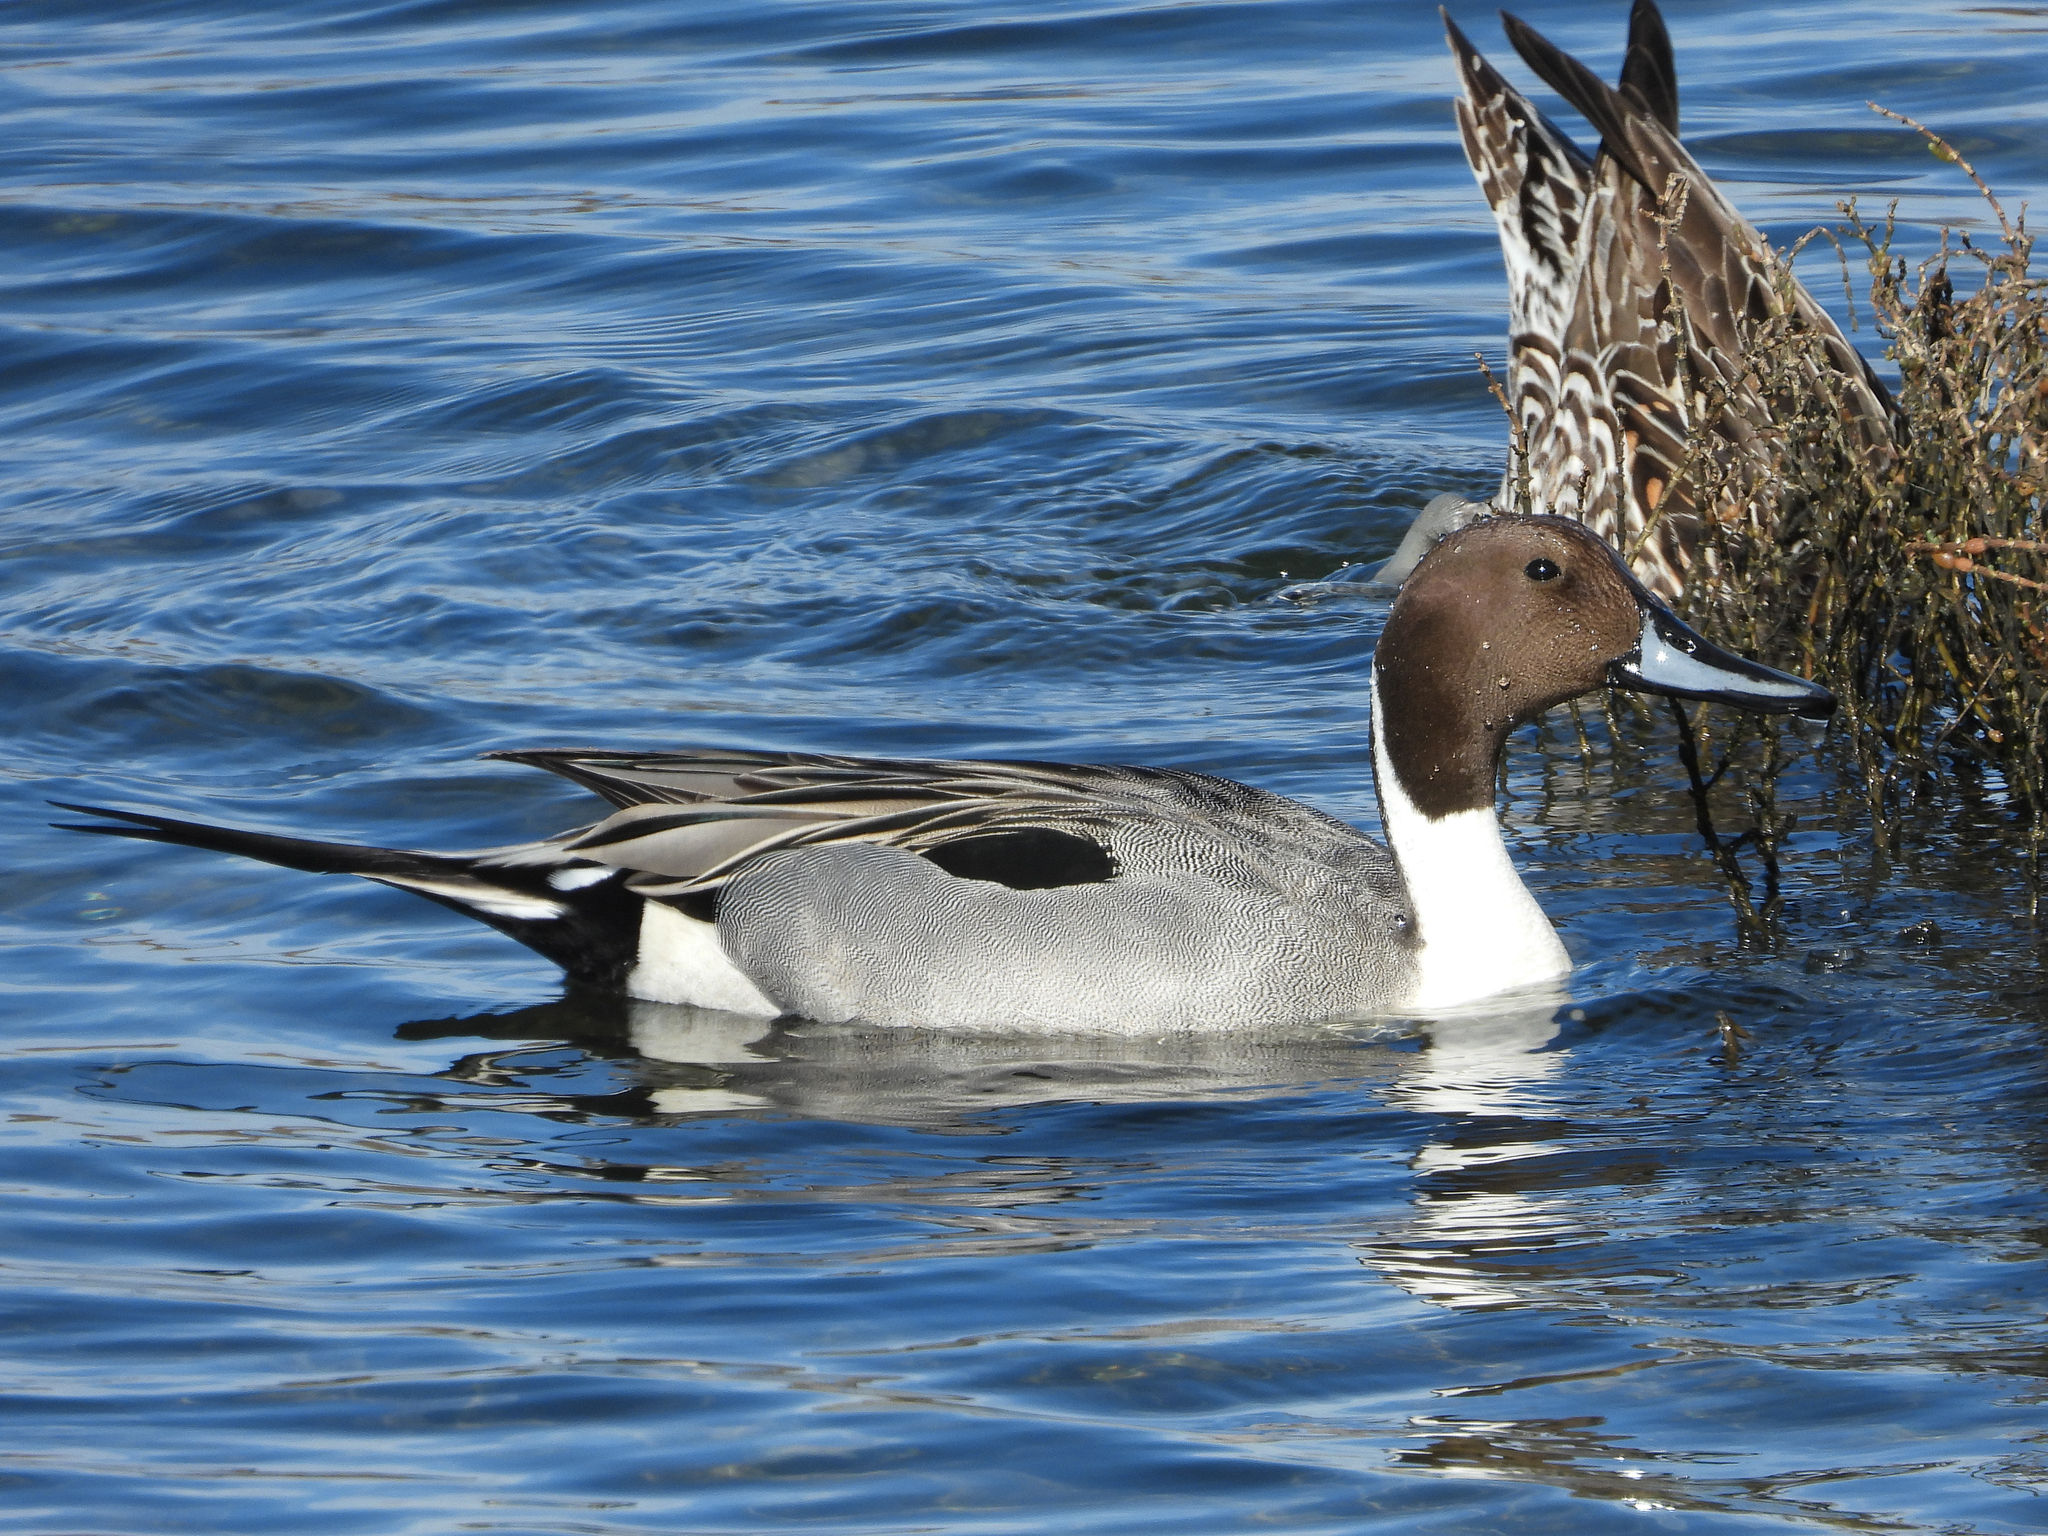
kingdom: Animalia
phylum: Chordata
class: Aves
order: Anseriformes
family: Anatidae
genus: Anas
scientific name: Anas acuta
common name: Northern pintail
